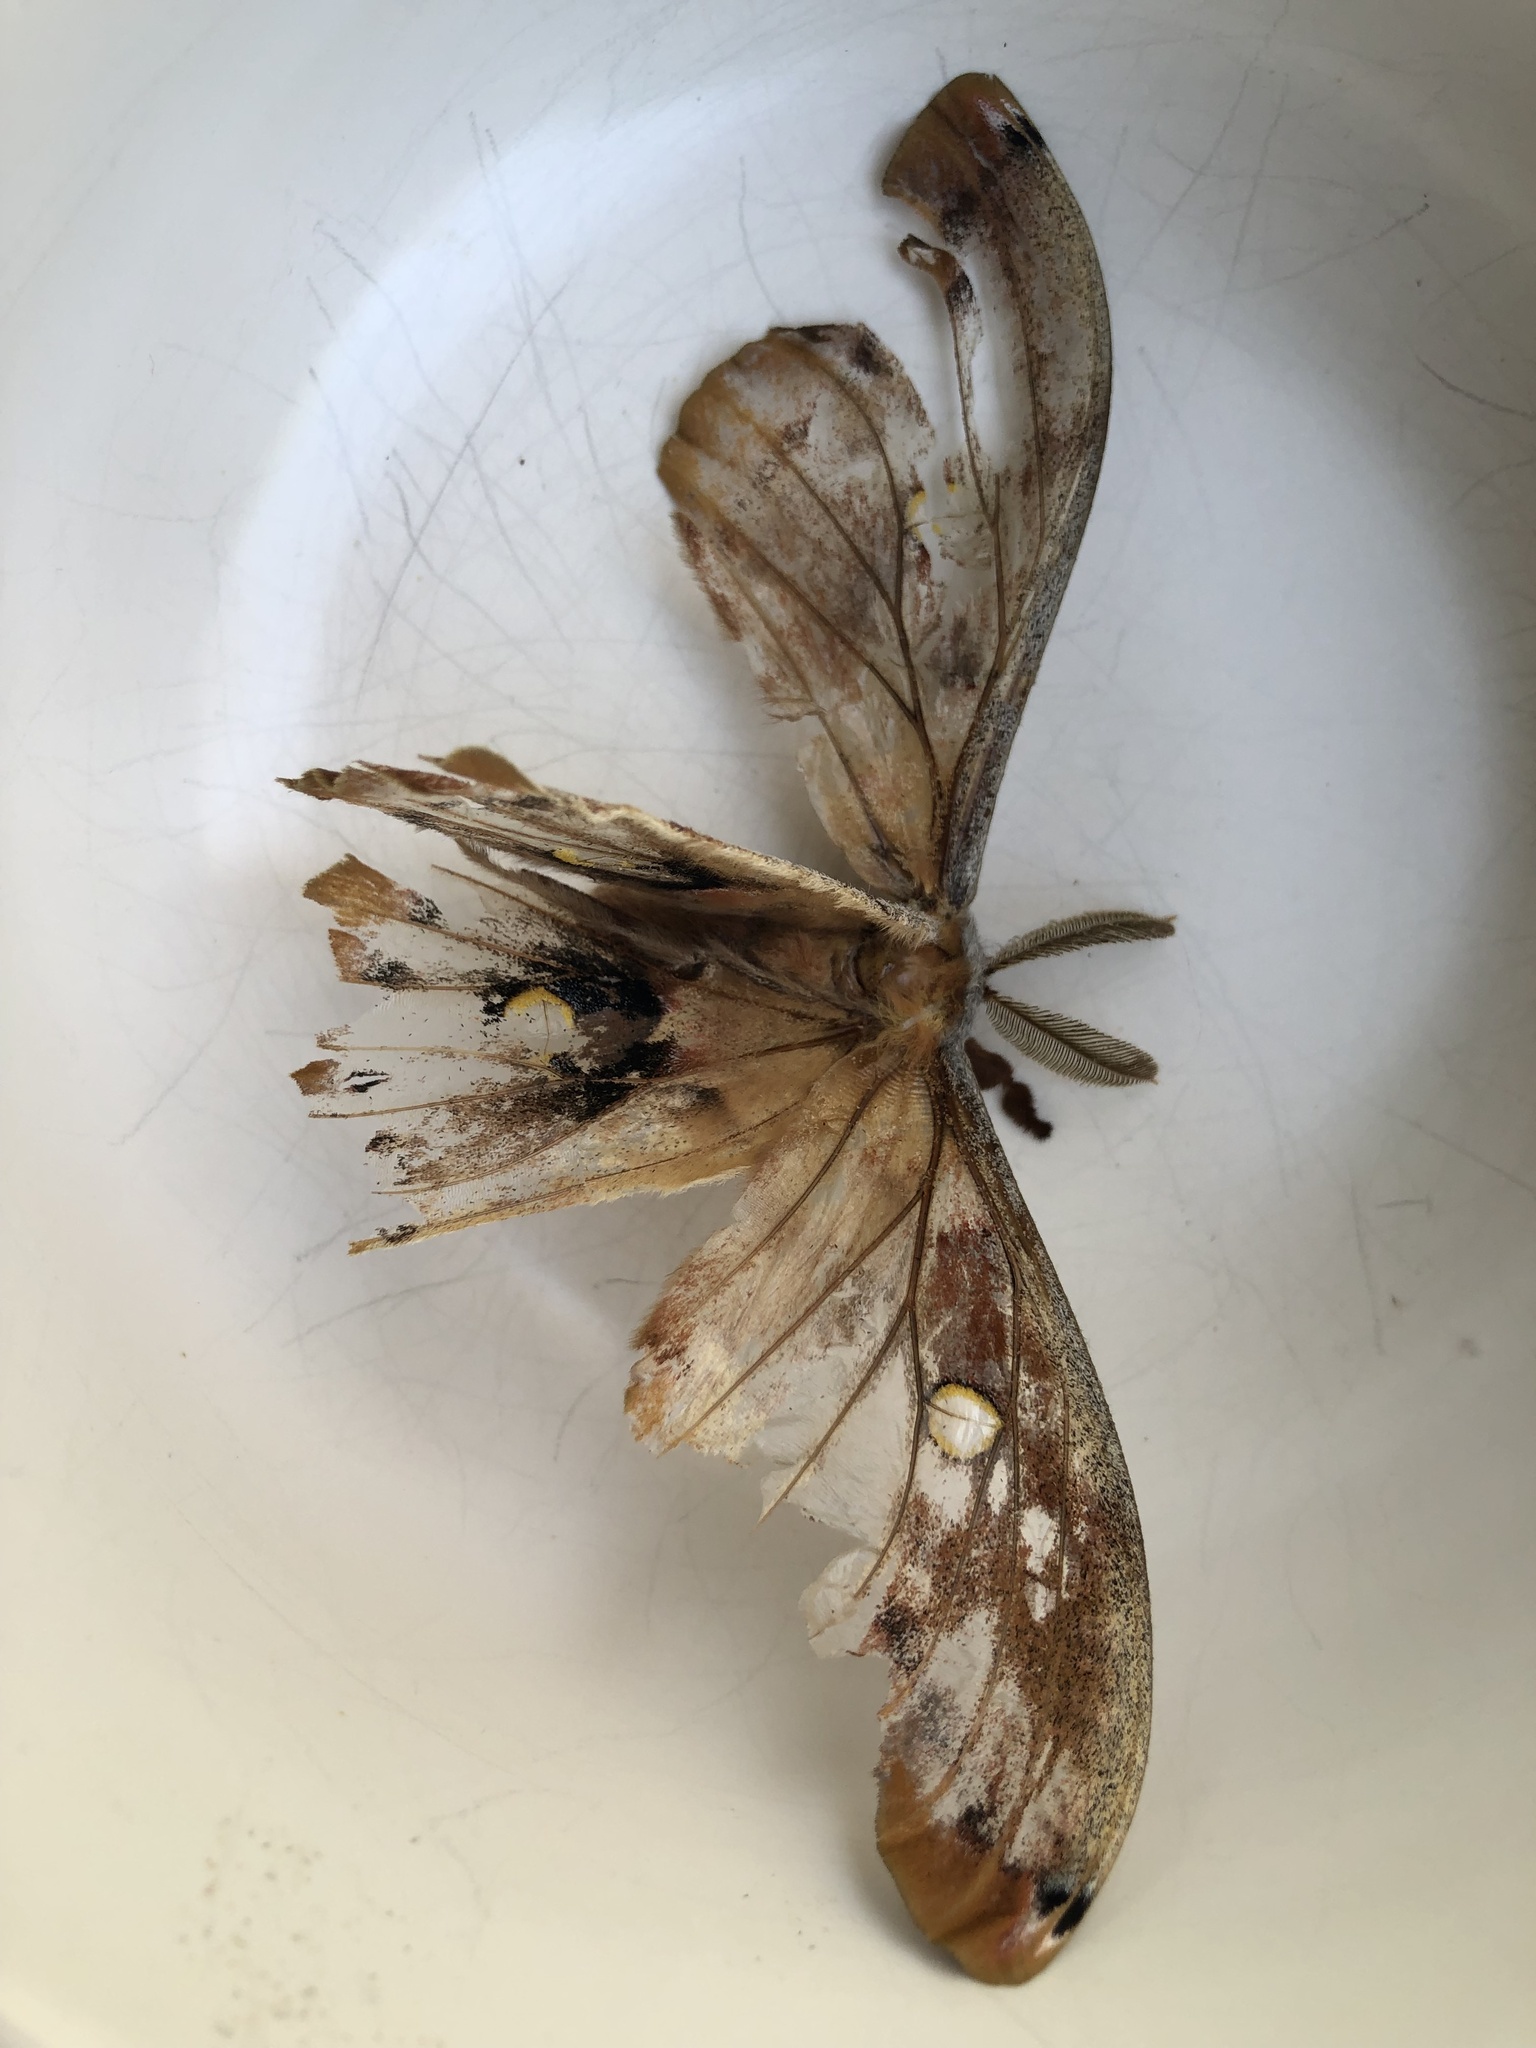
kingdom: Animalia
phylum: Arthropoda
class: Insecta
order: Lepidoptera
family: Saturniidae
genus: Antheraea
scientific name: Antheraea polyphemus
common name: Polyphemus moth
